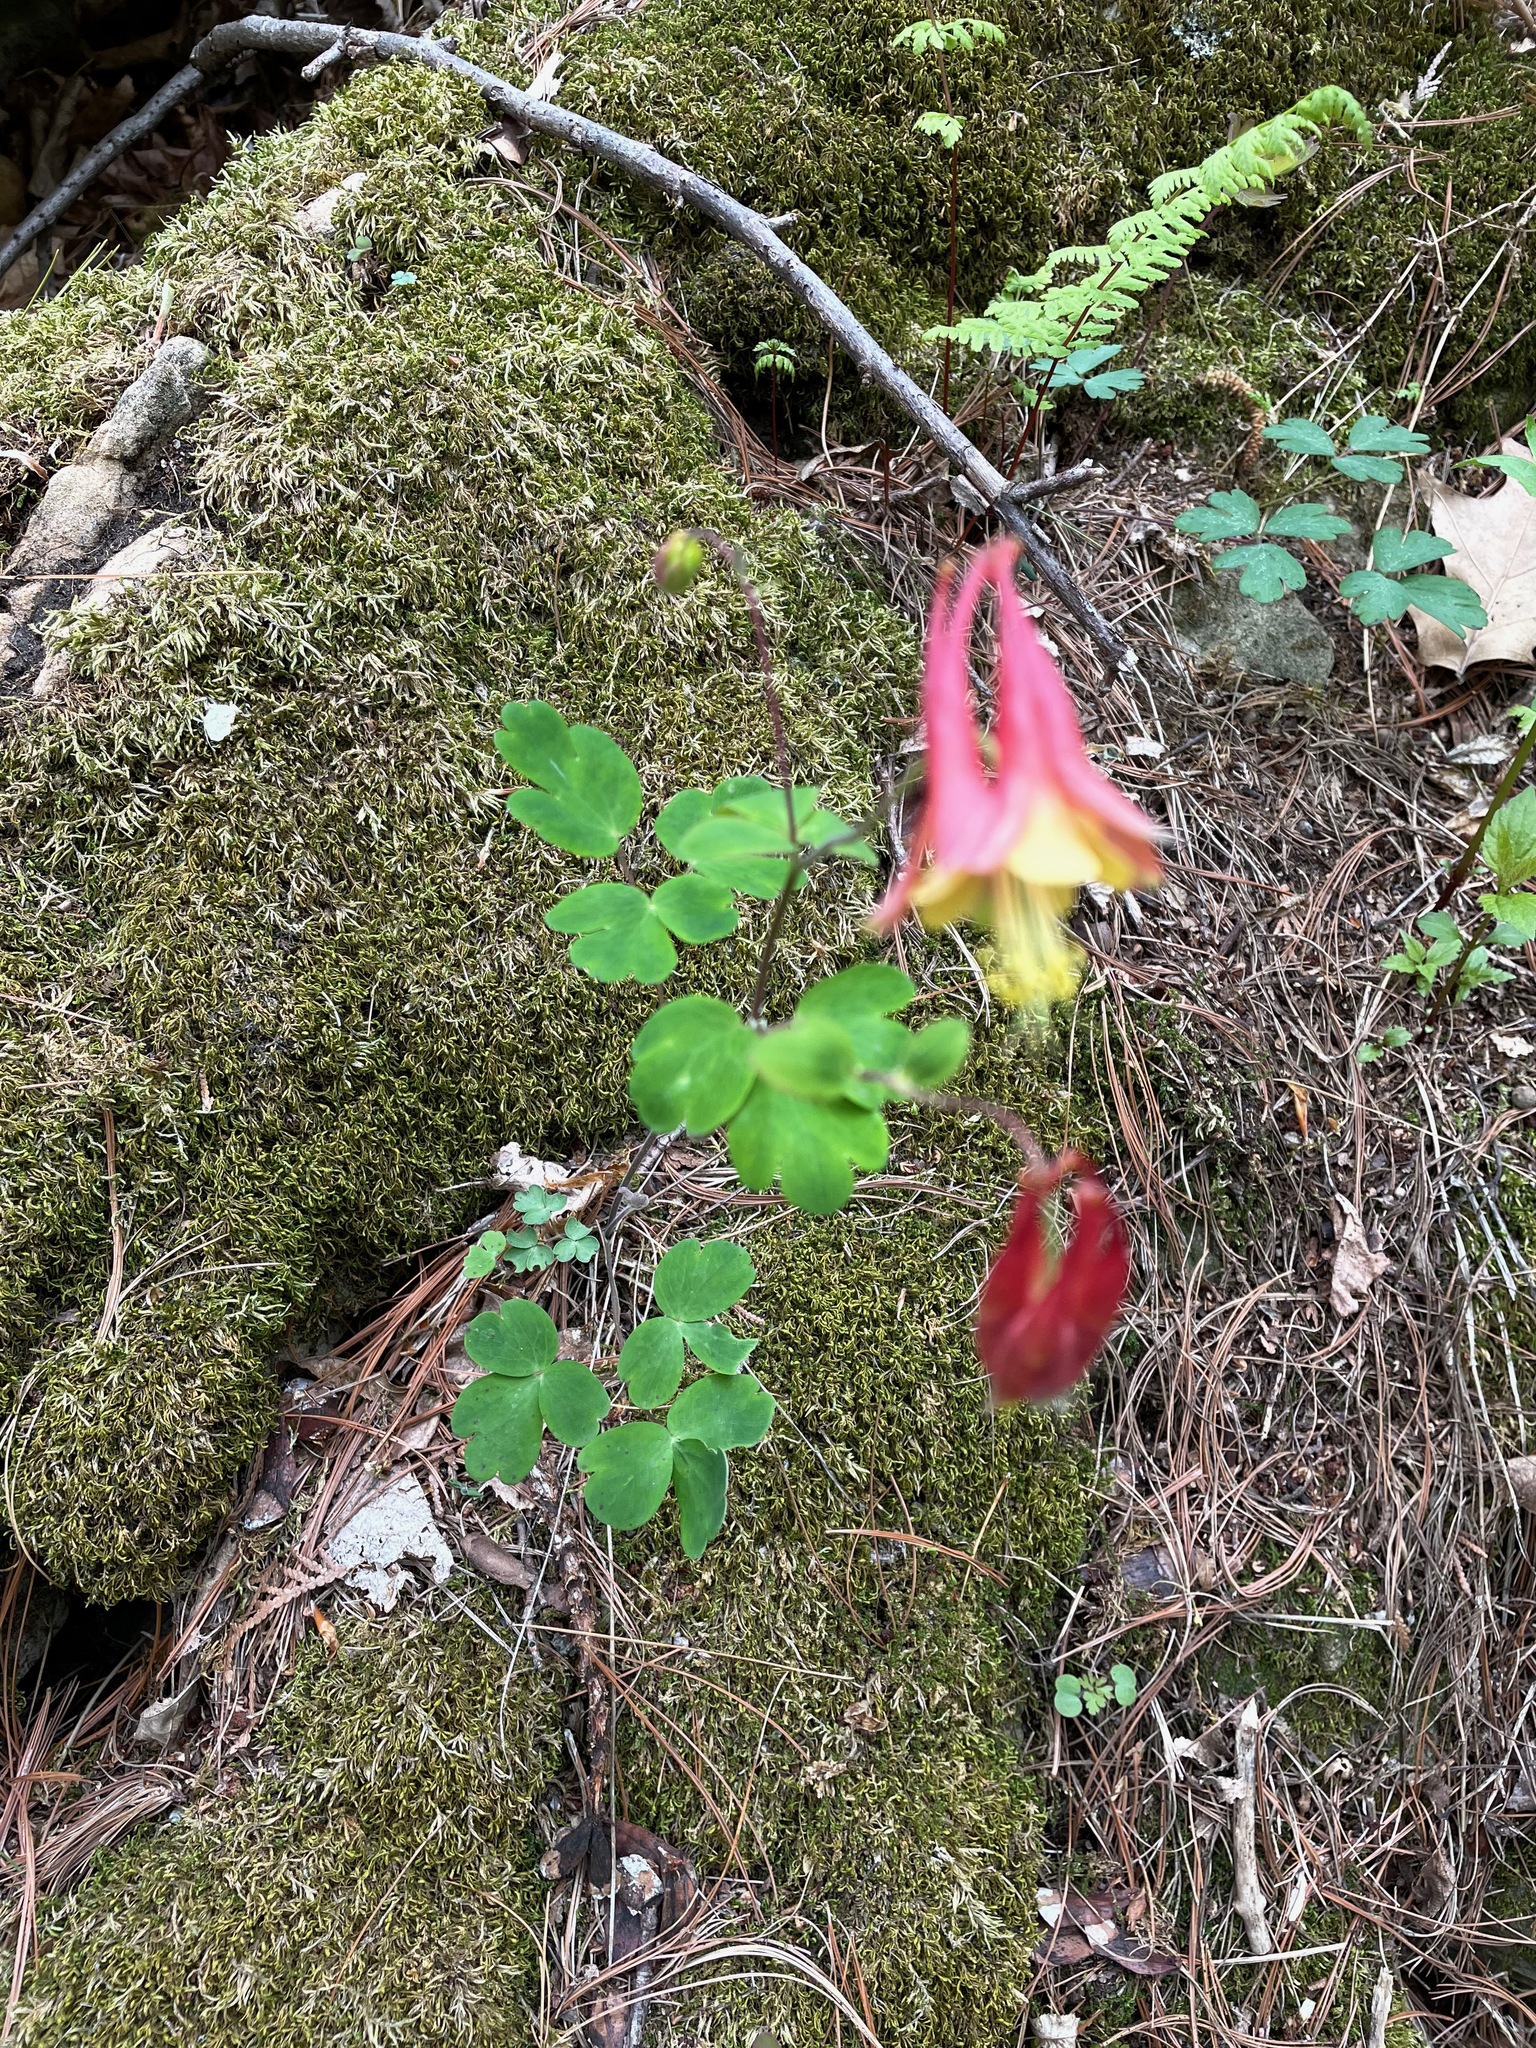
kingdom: Plantae
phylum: Tracheophyta
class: Magnoliopsida
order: Ranunculales
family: Ranunculaceae
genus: Aquilegia
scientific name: Aquilegia canadensis
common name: American columbine
